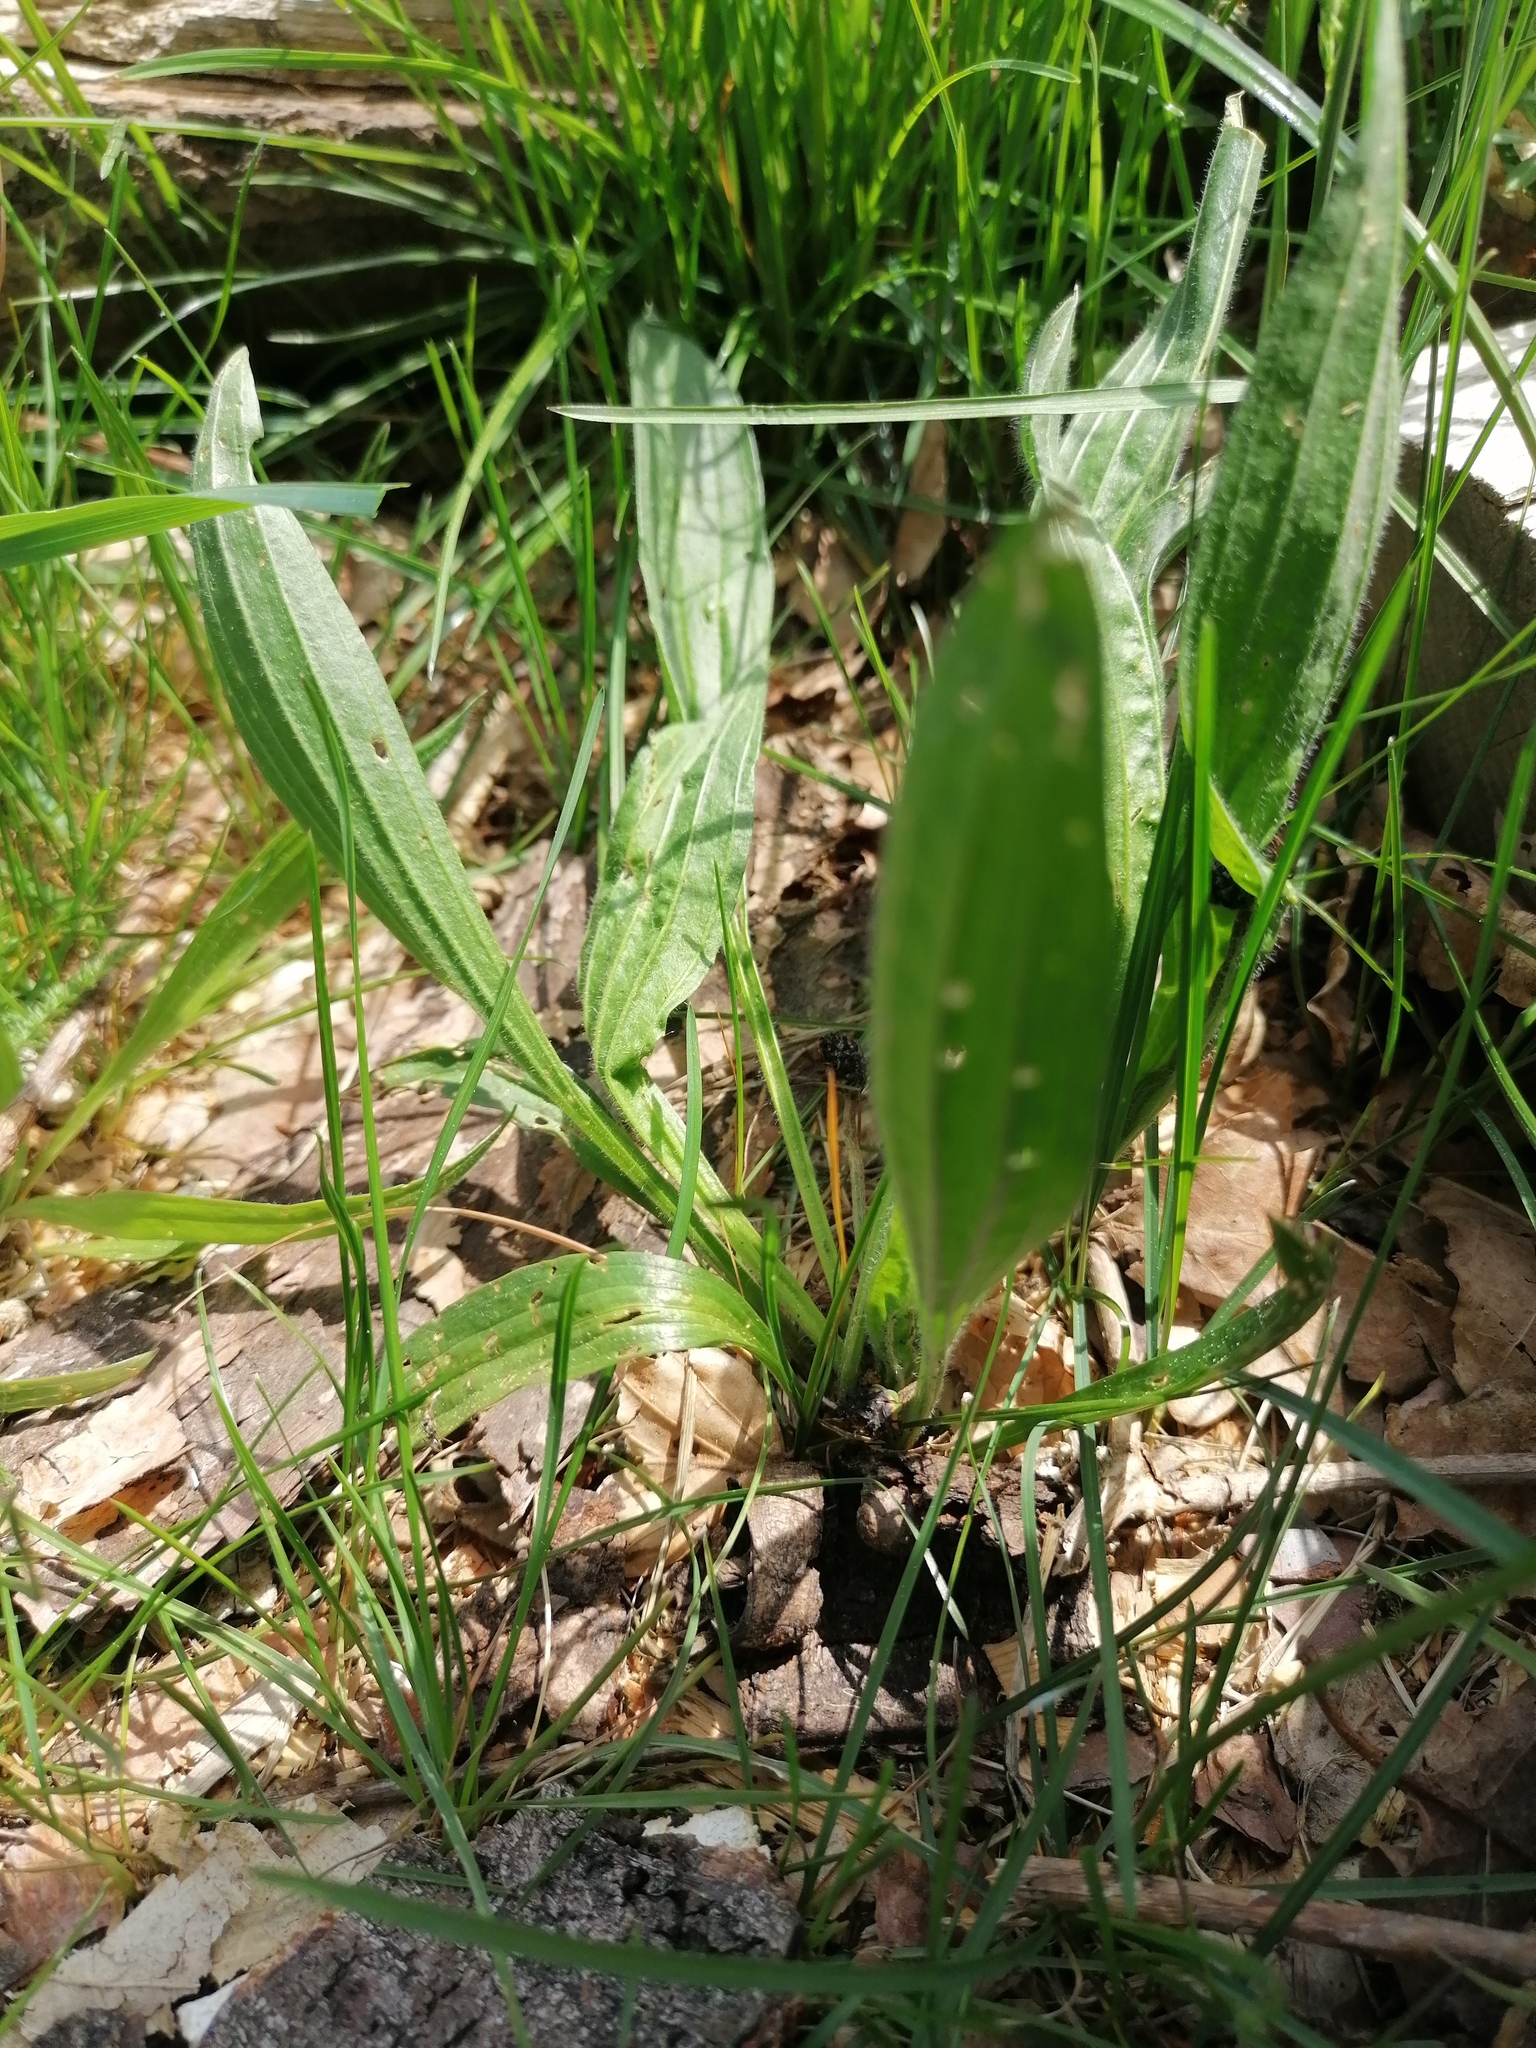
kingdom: Plantae
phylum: Tracheophyta
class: Magnoliopsida
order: Lamiales
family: Plantaginaceae
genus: Plantago
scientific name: Plantago lanceolata
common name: Ribwort plantain
